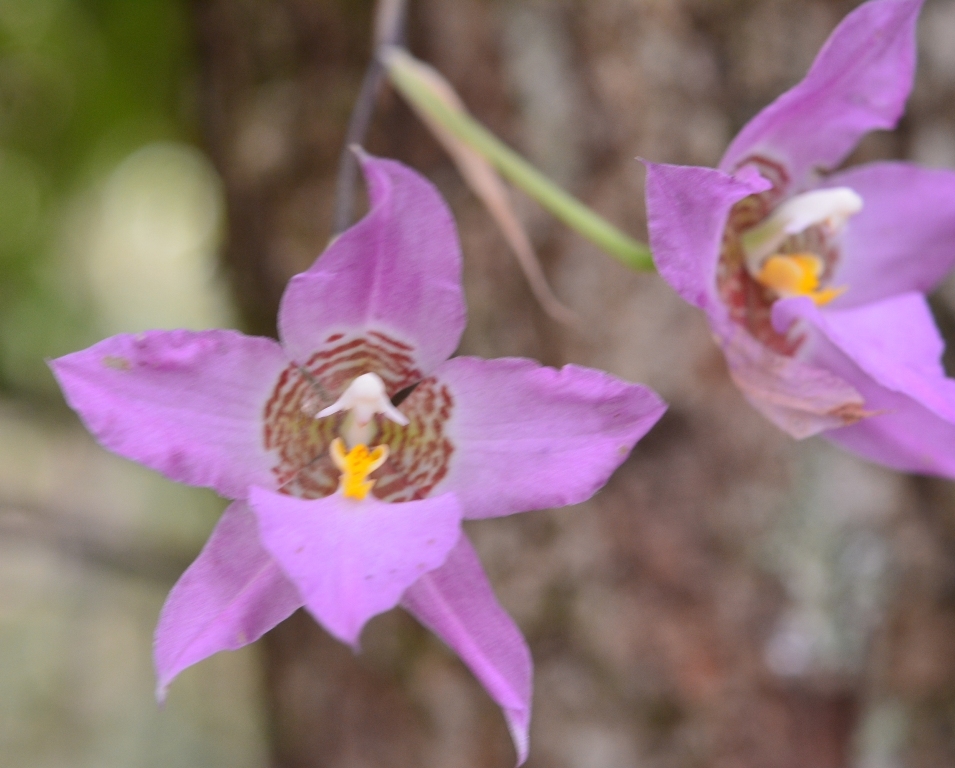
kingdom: Plantae
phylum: Tracheophyta
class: Liliopsida
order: Asparagales
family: Orchidaceae
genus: Rhynchostele
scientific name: Rhynchostele cervantesii
